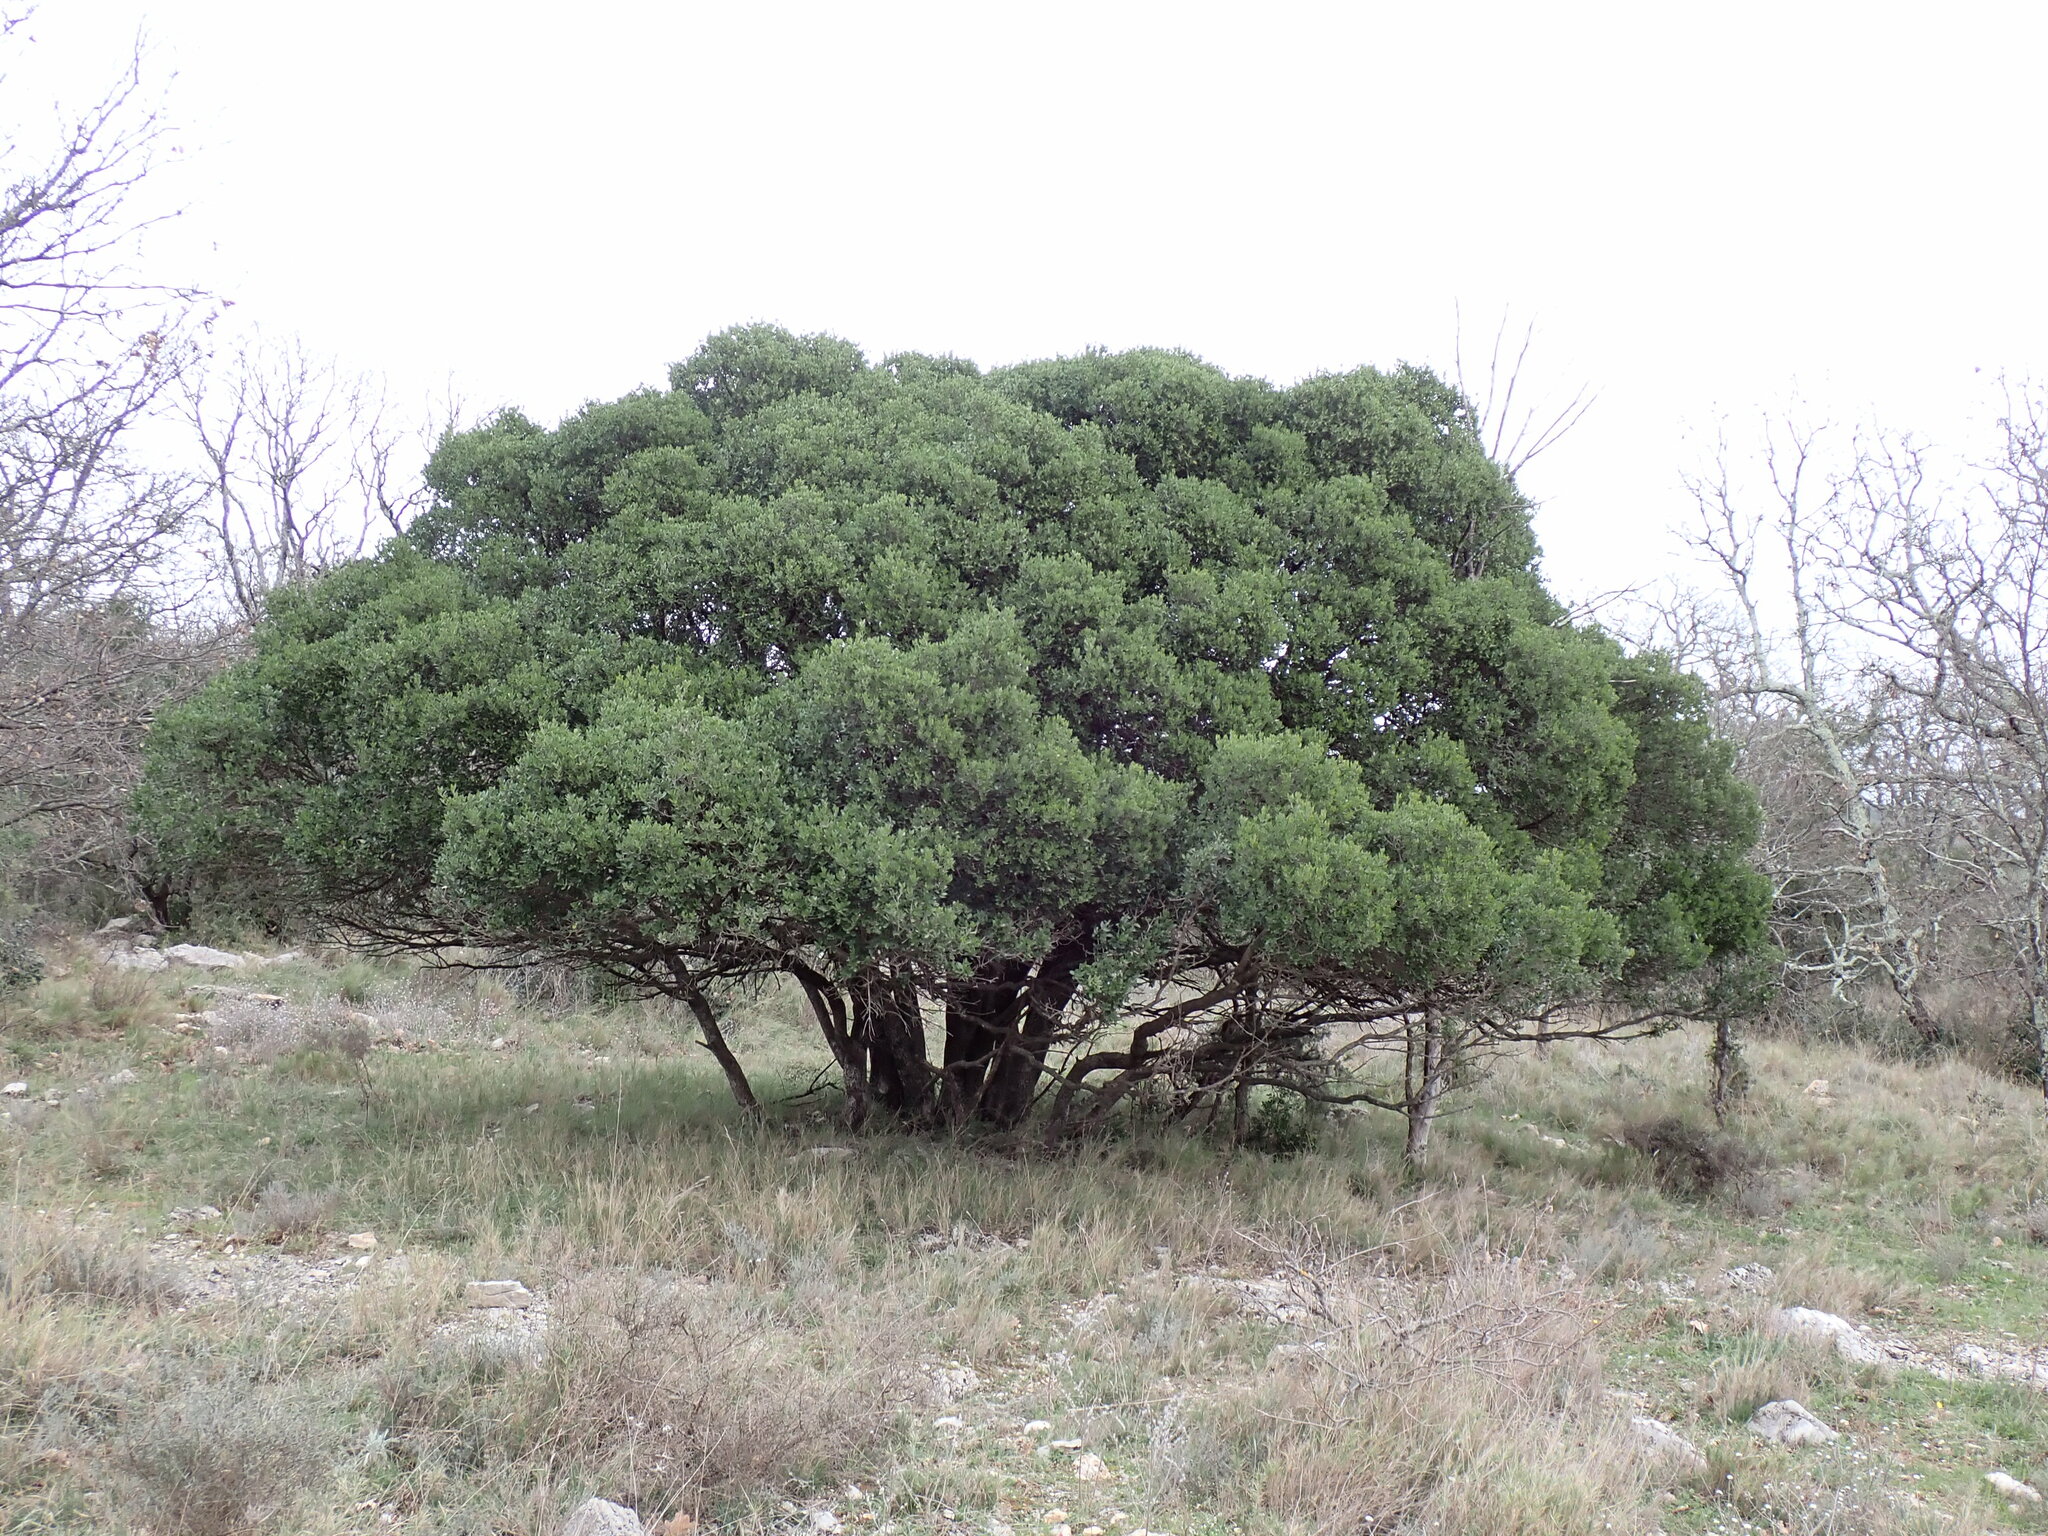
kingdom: Plantae
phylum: Tracheophyta
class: Magnoliopsida
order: Lamiales
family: Oleaceae
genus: Phillyrea
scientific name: Phillyrea latifolia
